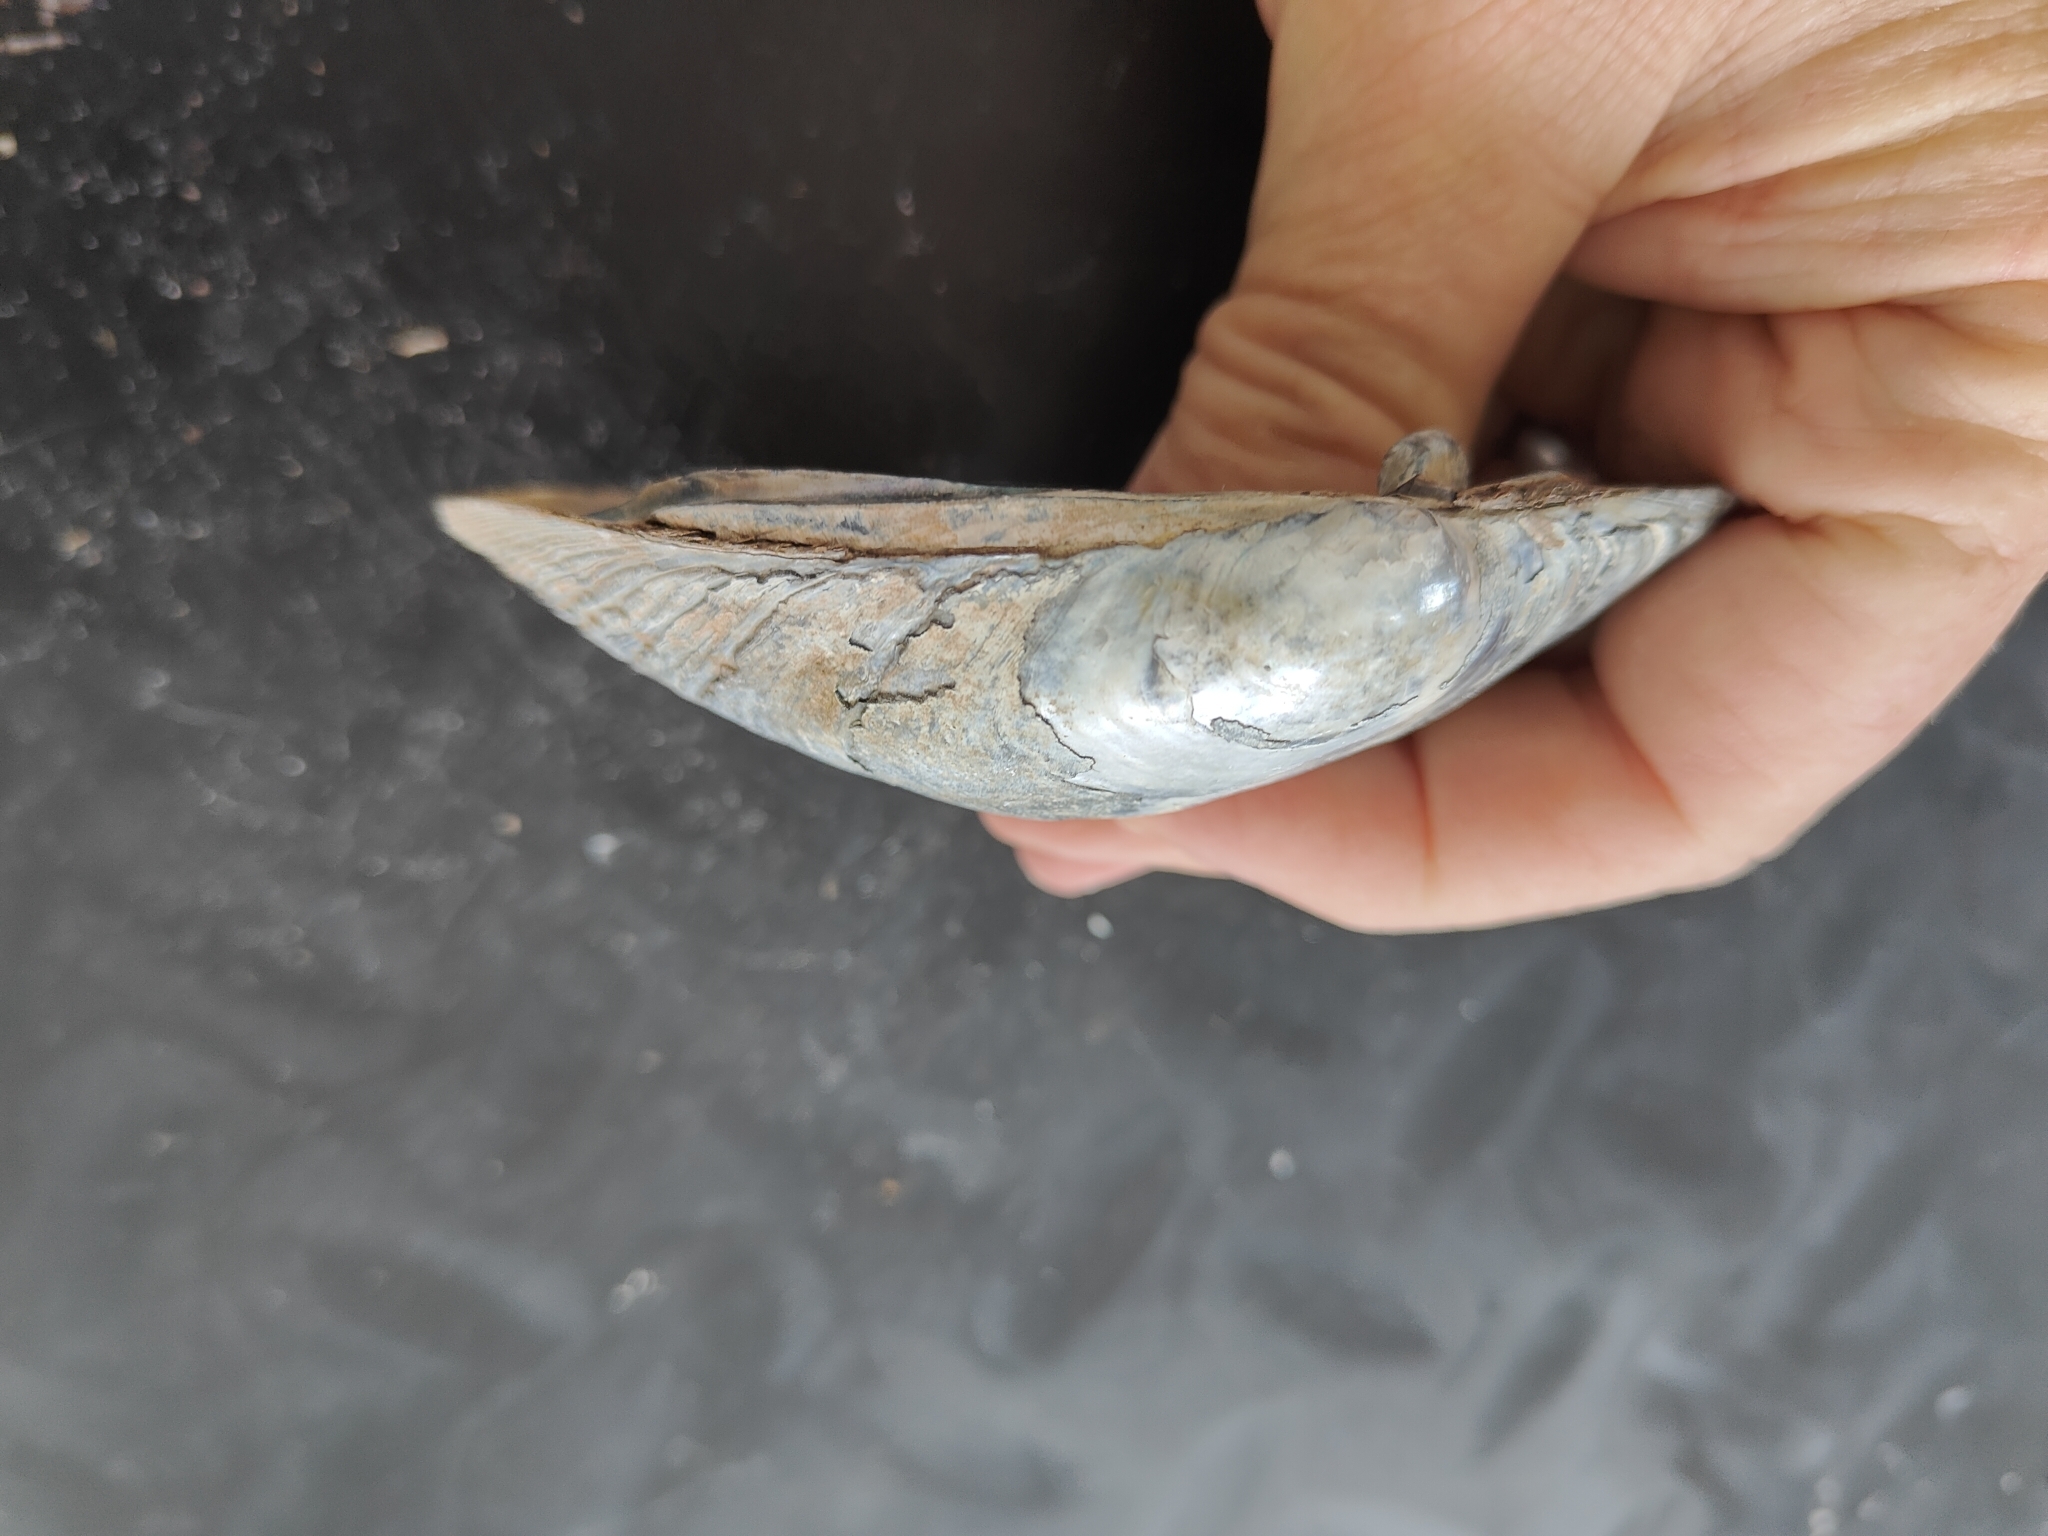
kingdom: Animalia
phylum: Mollusca
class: Bivalvia
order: Unionida
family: Unionidae
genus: Lampsilis
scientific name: Lampsilis cardium
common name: Plain pocketbook
